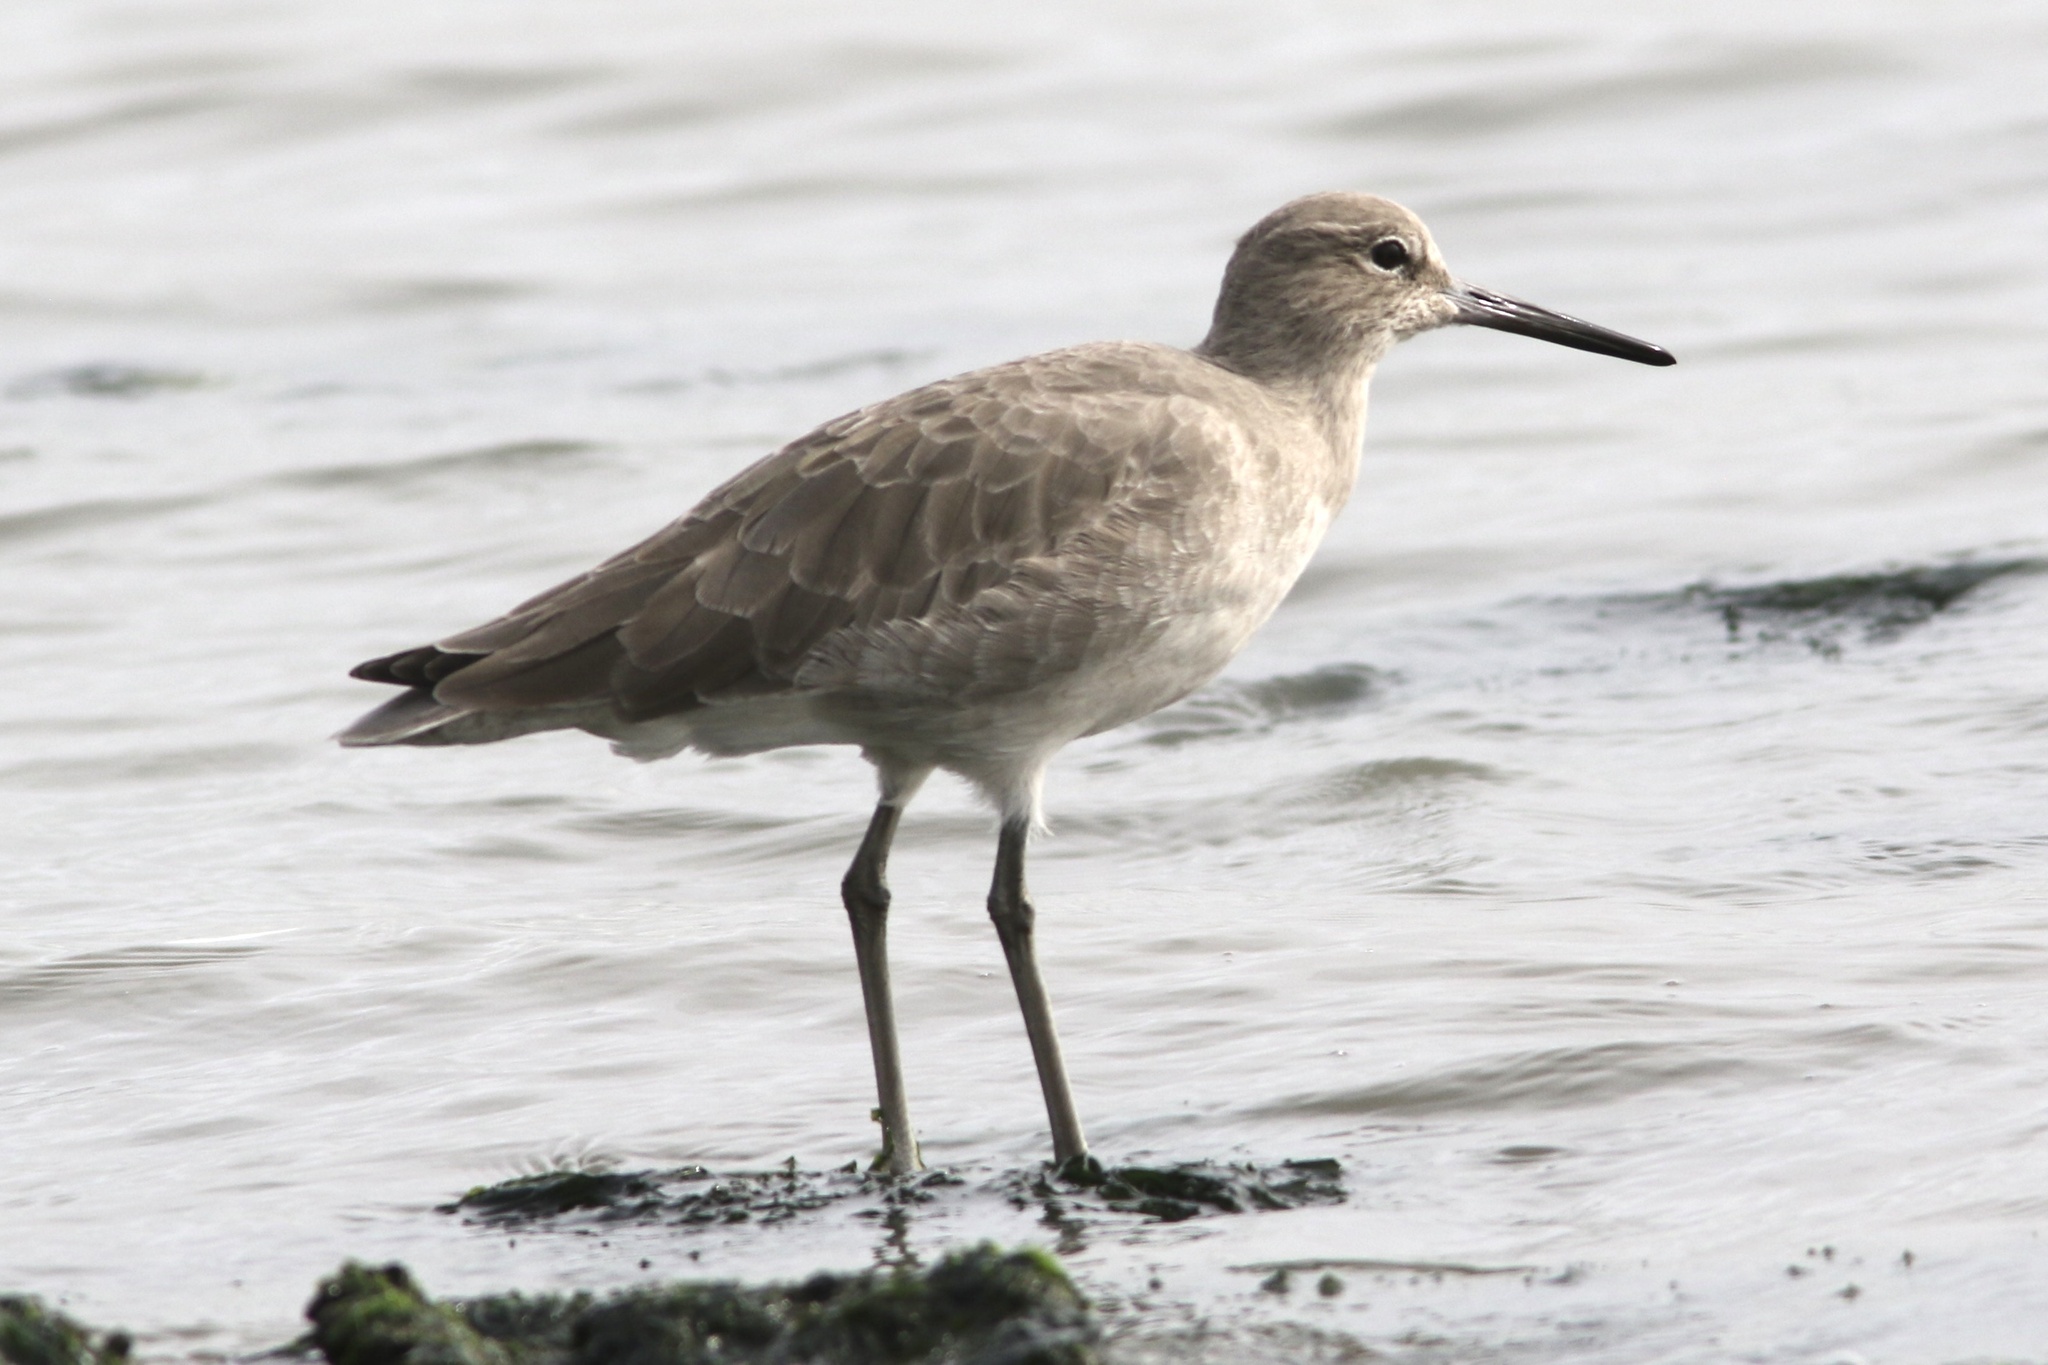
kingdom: Animalia
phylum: Chordata
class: Aves
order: Charadriiformes
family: Scolopacidae
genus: Tringa
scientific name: Tringa semipalmata
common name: Willet
